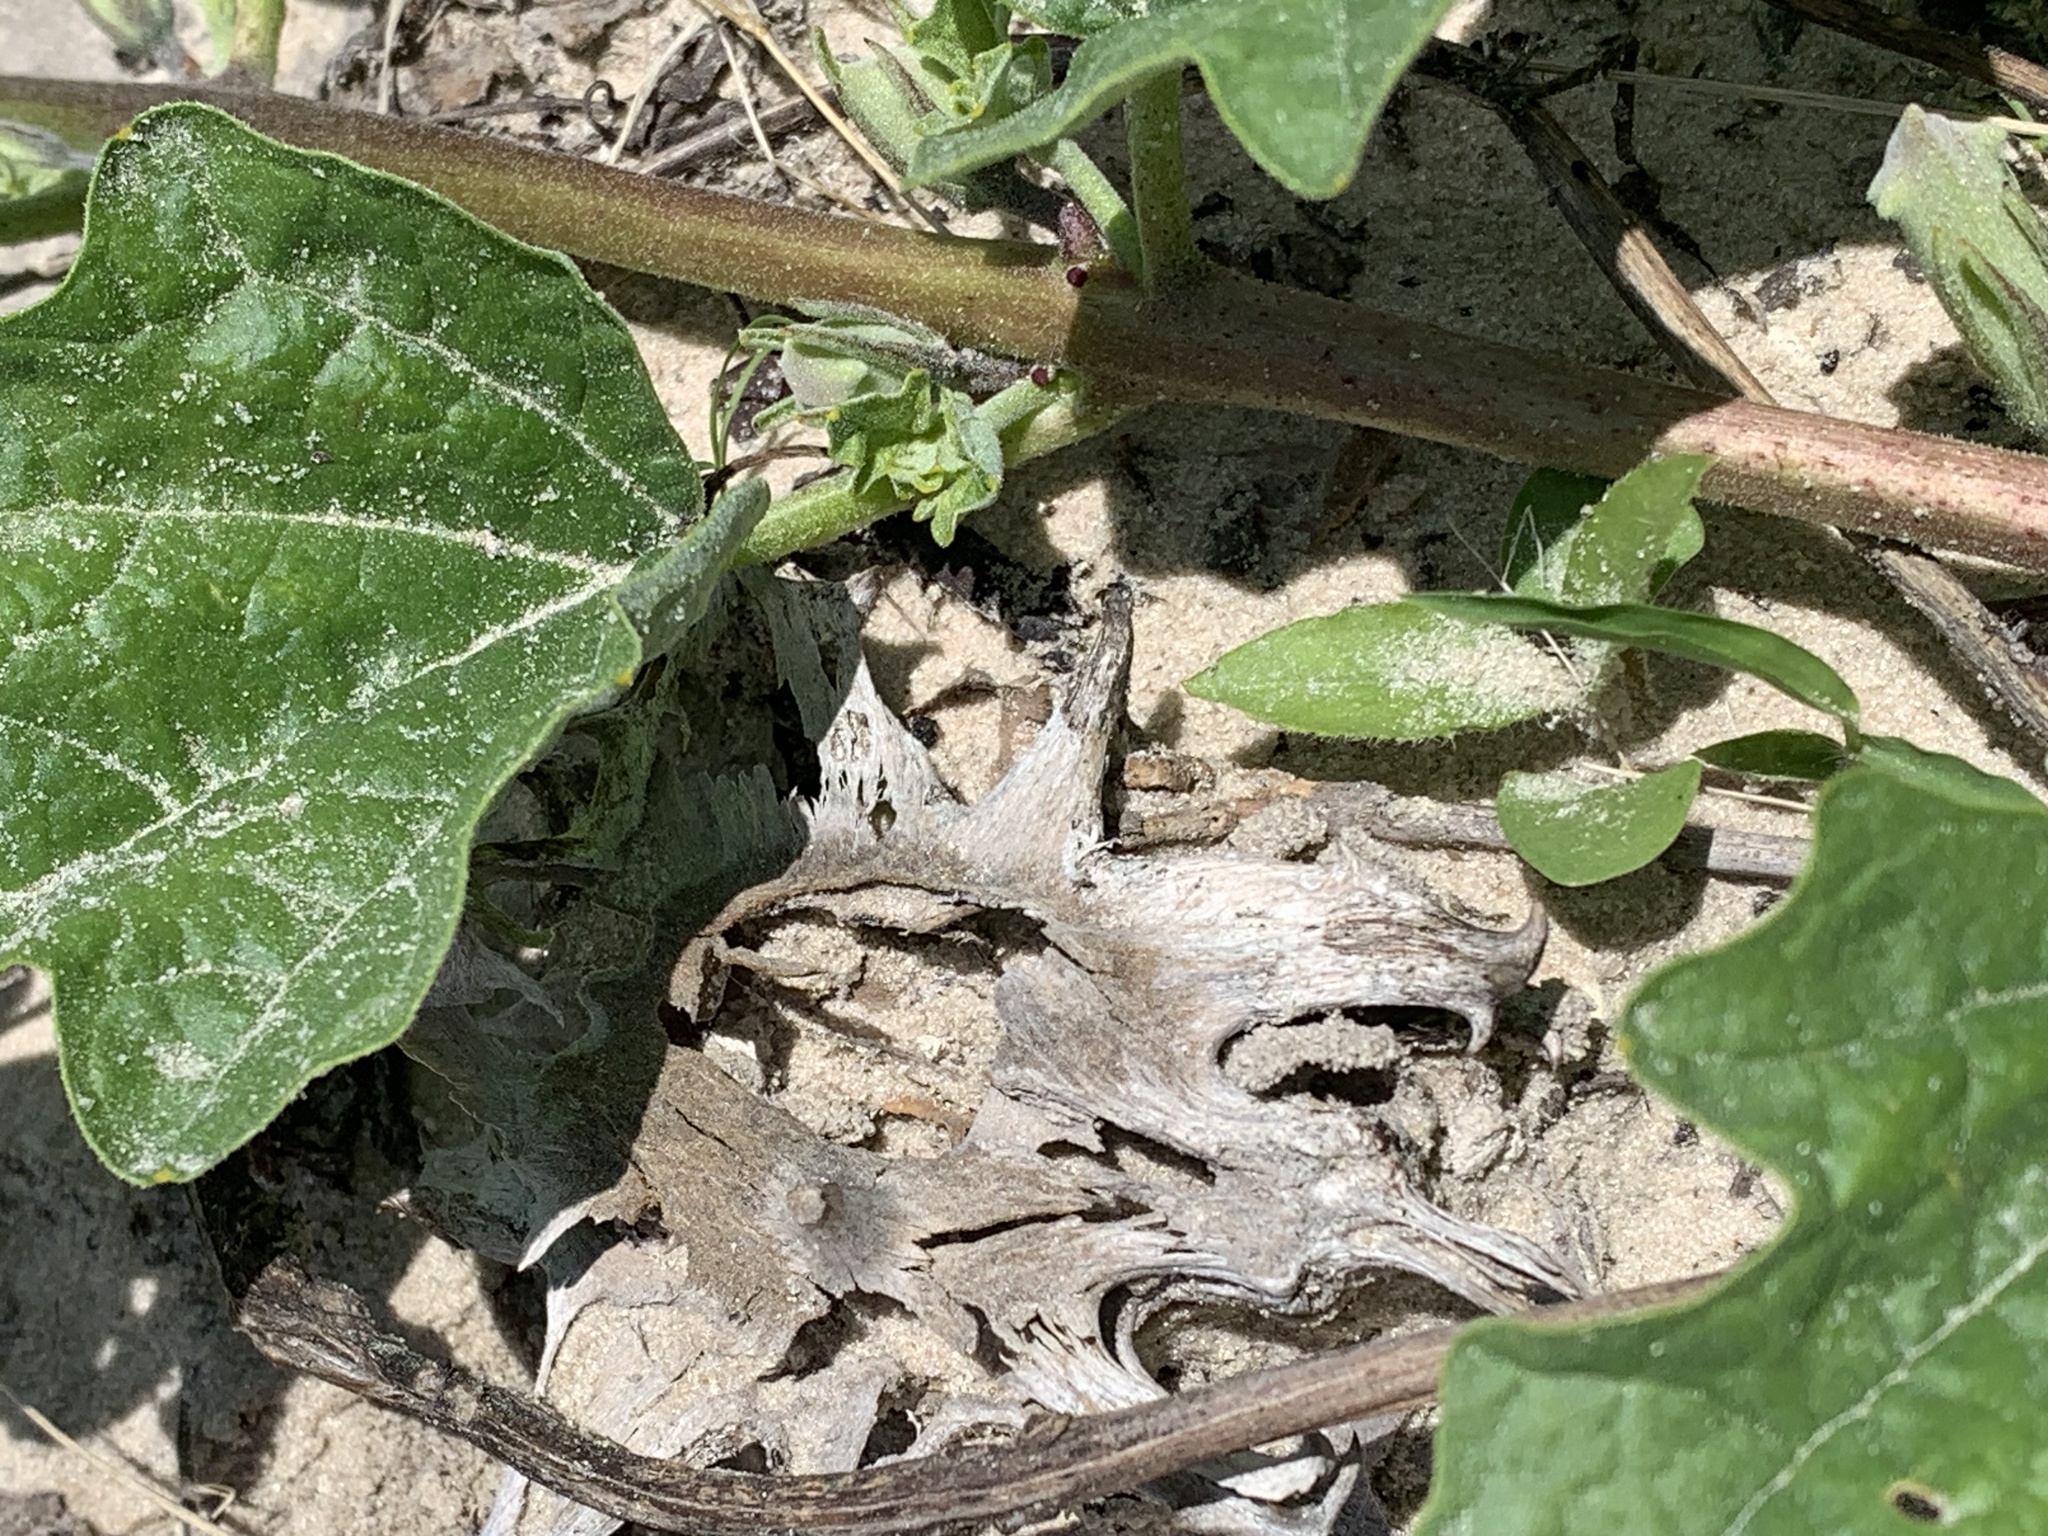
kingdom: Plantae
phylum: Tracheophyta
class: Magnoliopsida
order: Lamiales
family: Pedaliaceae
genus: Harpagophytum
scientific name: Harpagophytum zeyheri
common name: Grappleplant
